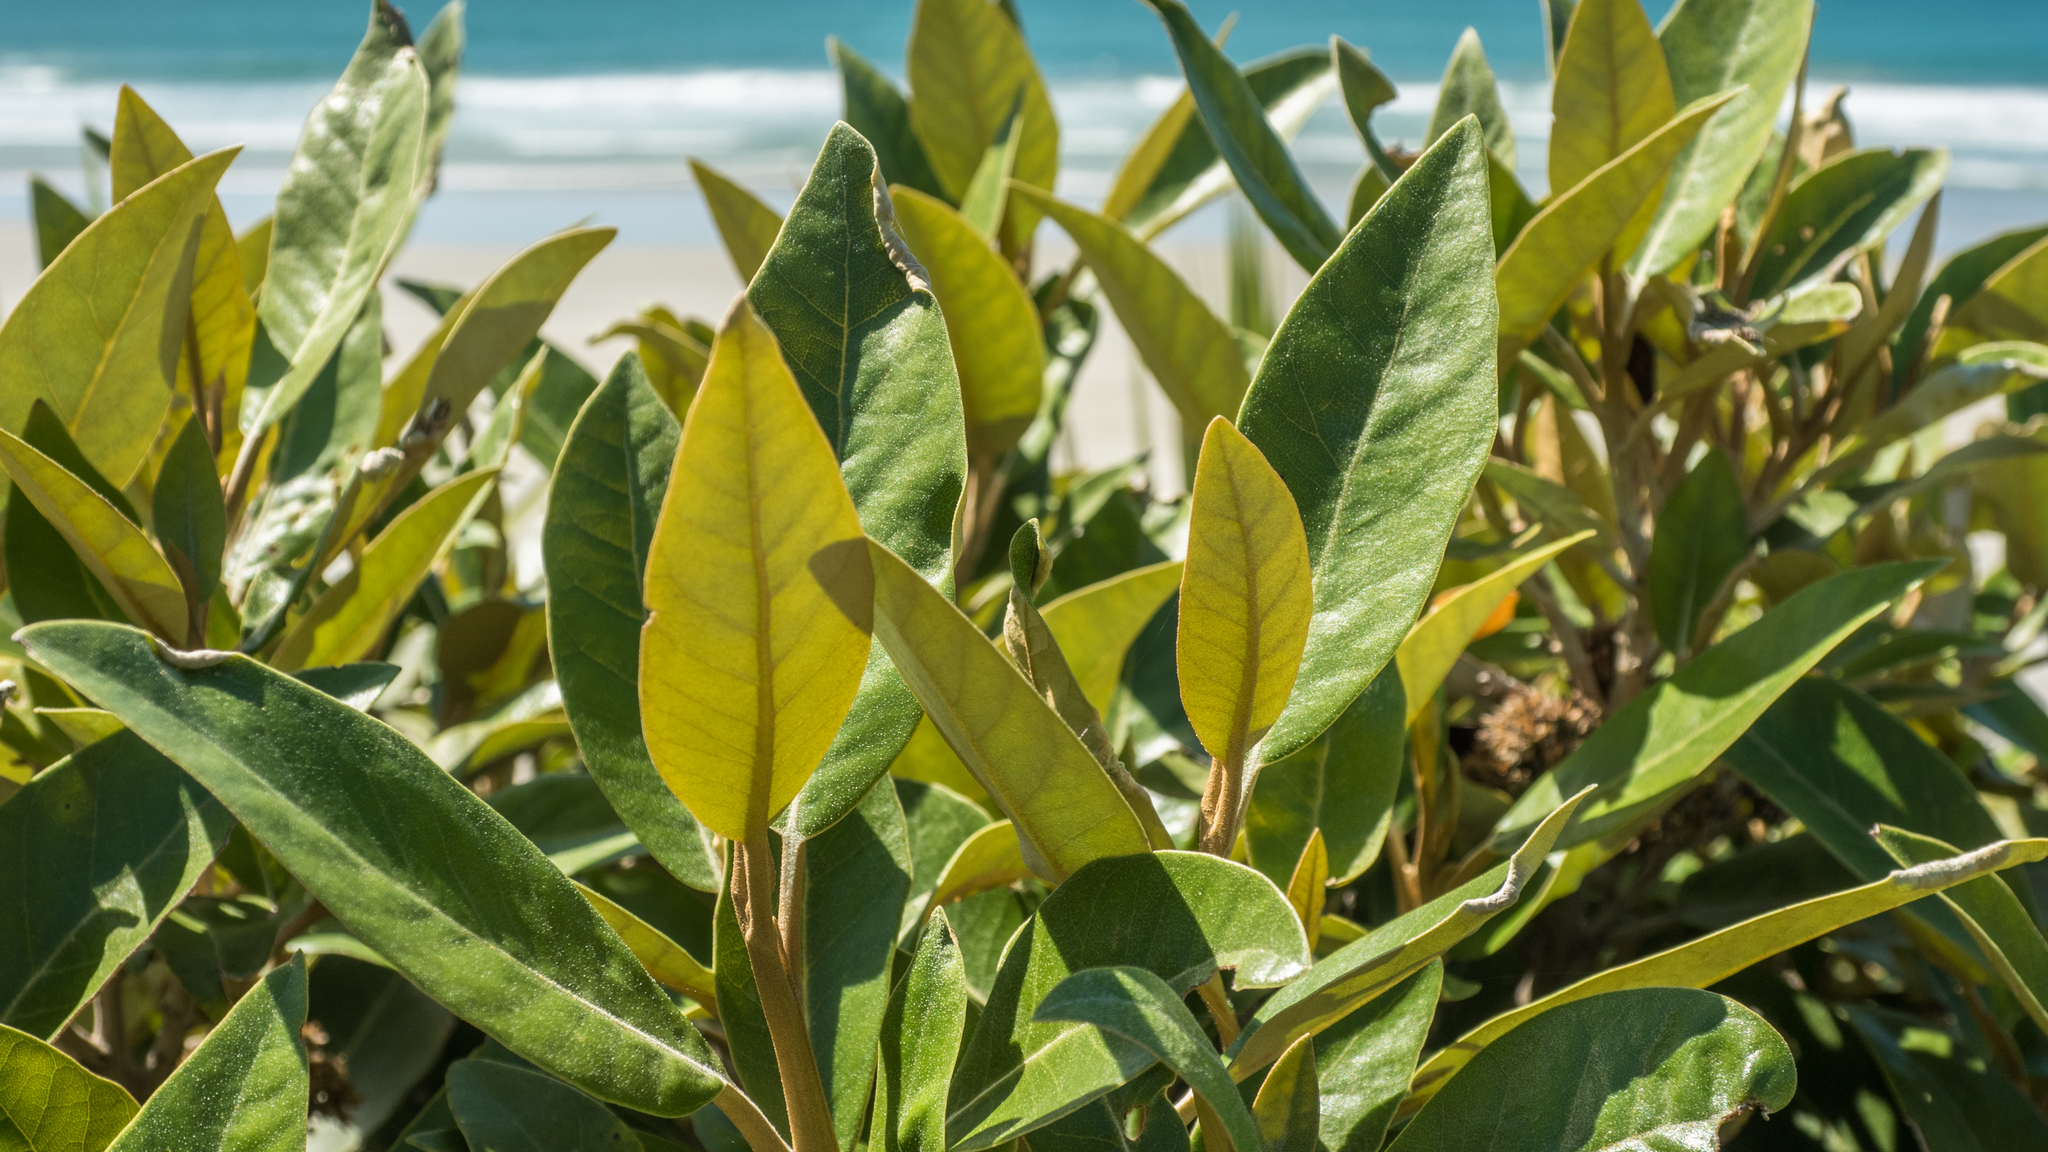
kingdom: Plantae
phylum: Tracheophyta
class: Magnoliopsida
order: Asterales
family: Asteraceae
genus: Olearia
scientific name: Olearia avicenniifolia
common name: Mangrove-leaf daisybush
